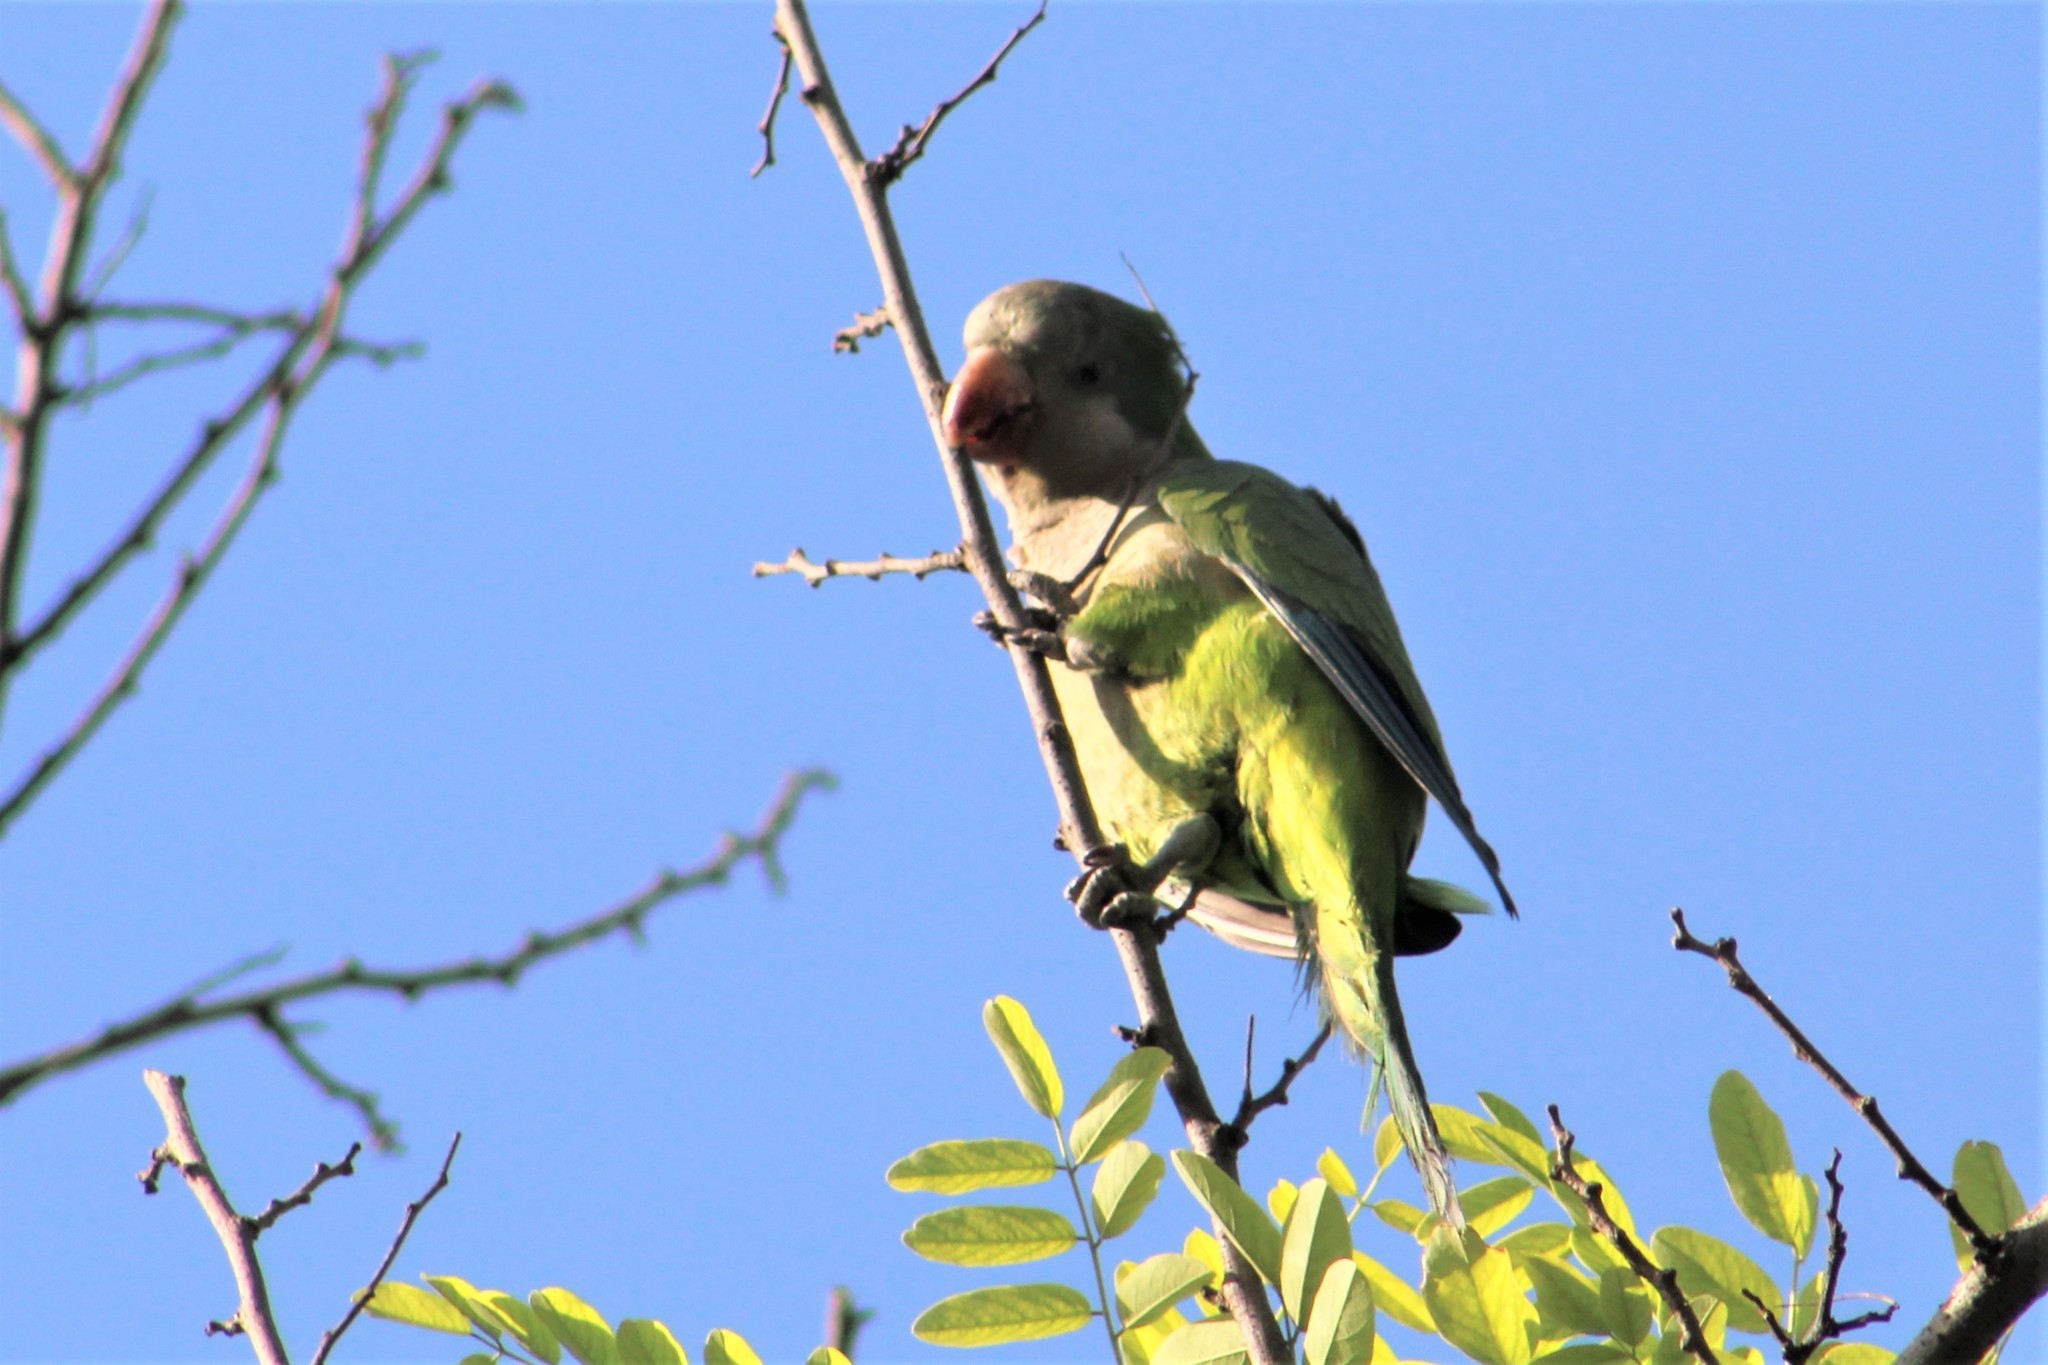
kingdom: Animalia
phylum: Chordata
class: Aves
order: Psittaciformes
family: Psittacidae
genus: Myiopsitta
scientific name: Myiopsitta monachus
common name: Monk parakeet
